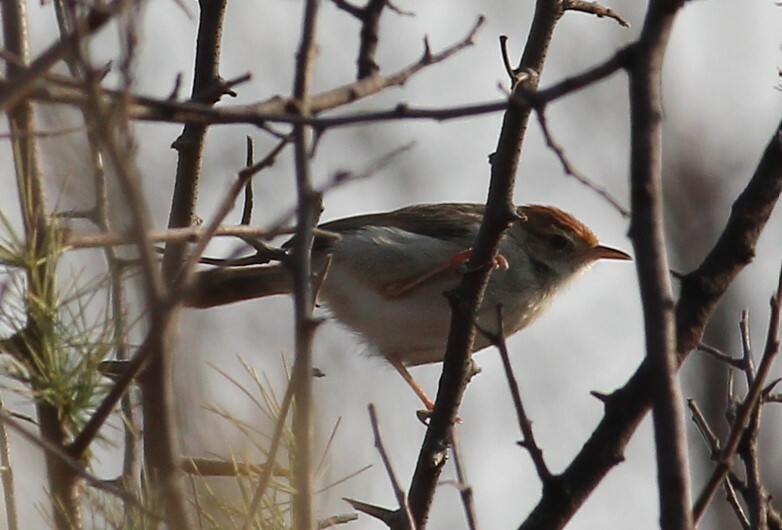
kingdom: Animalia
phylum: Chordata
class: Aves
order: Passeriformes
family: Cisticolidae
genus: Cisticola
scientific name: Cisticola fulvicapilla
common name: Neddicky
